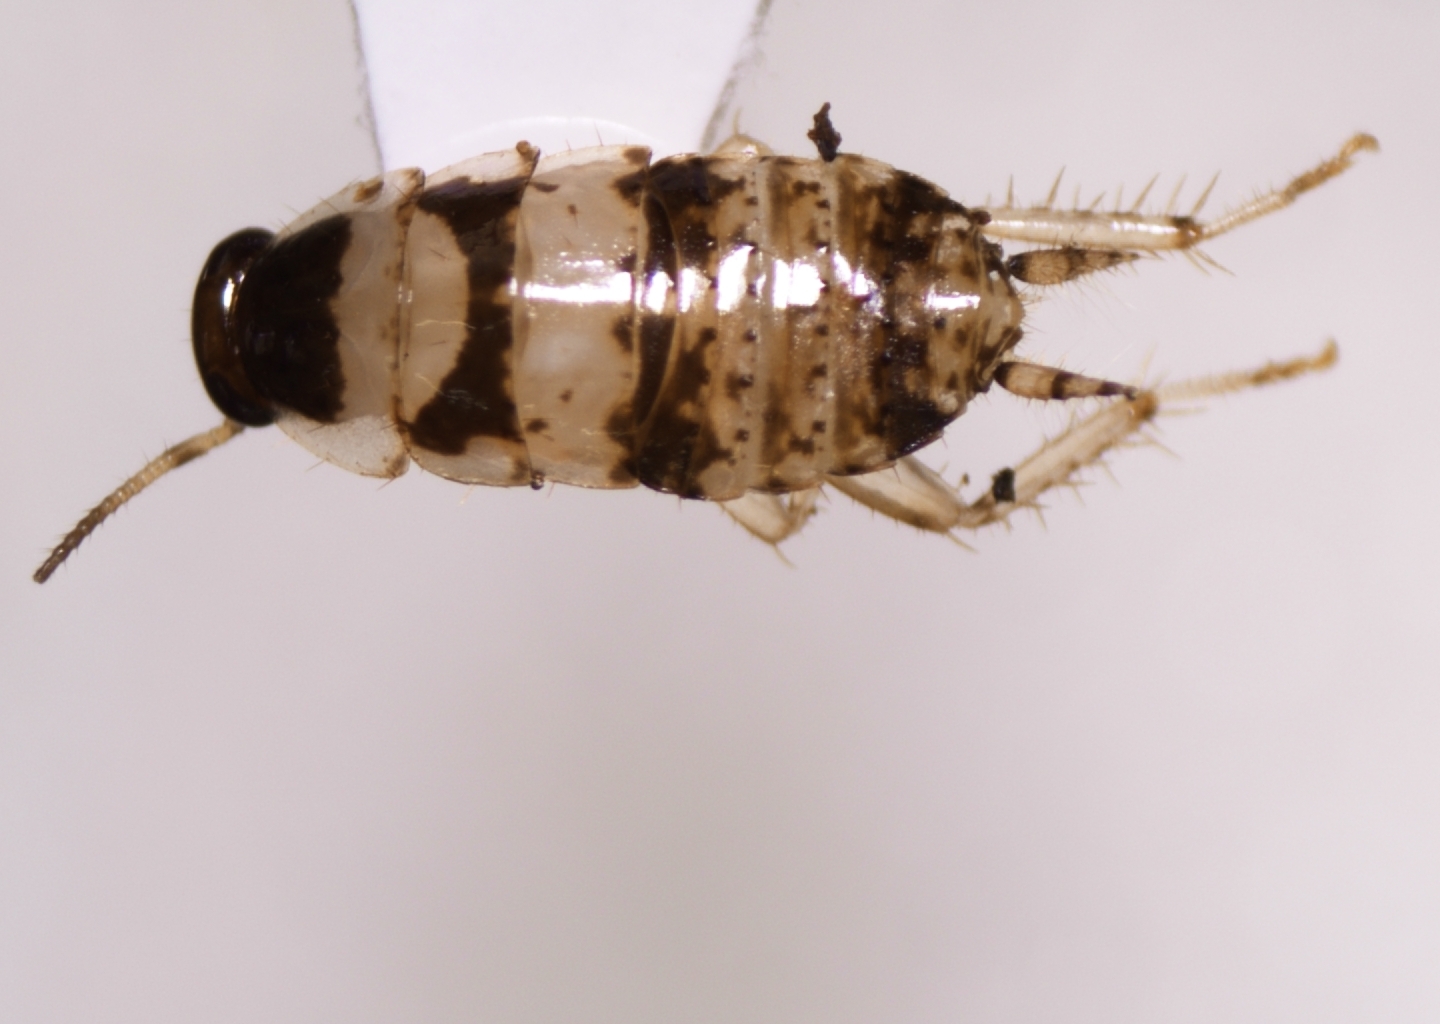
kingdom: Animalia
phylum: Arthropoda
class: Insecta
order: Blattodea
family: Ectobiidae
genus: Balta
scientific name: Balta notulata
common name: Cockroach
